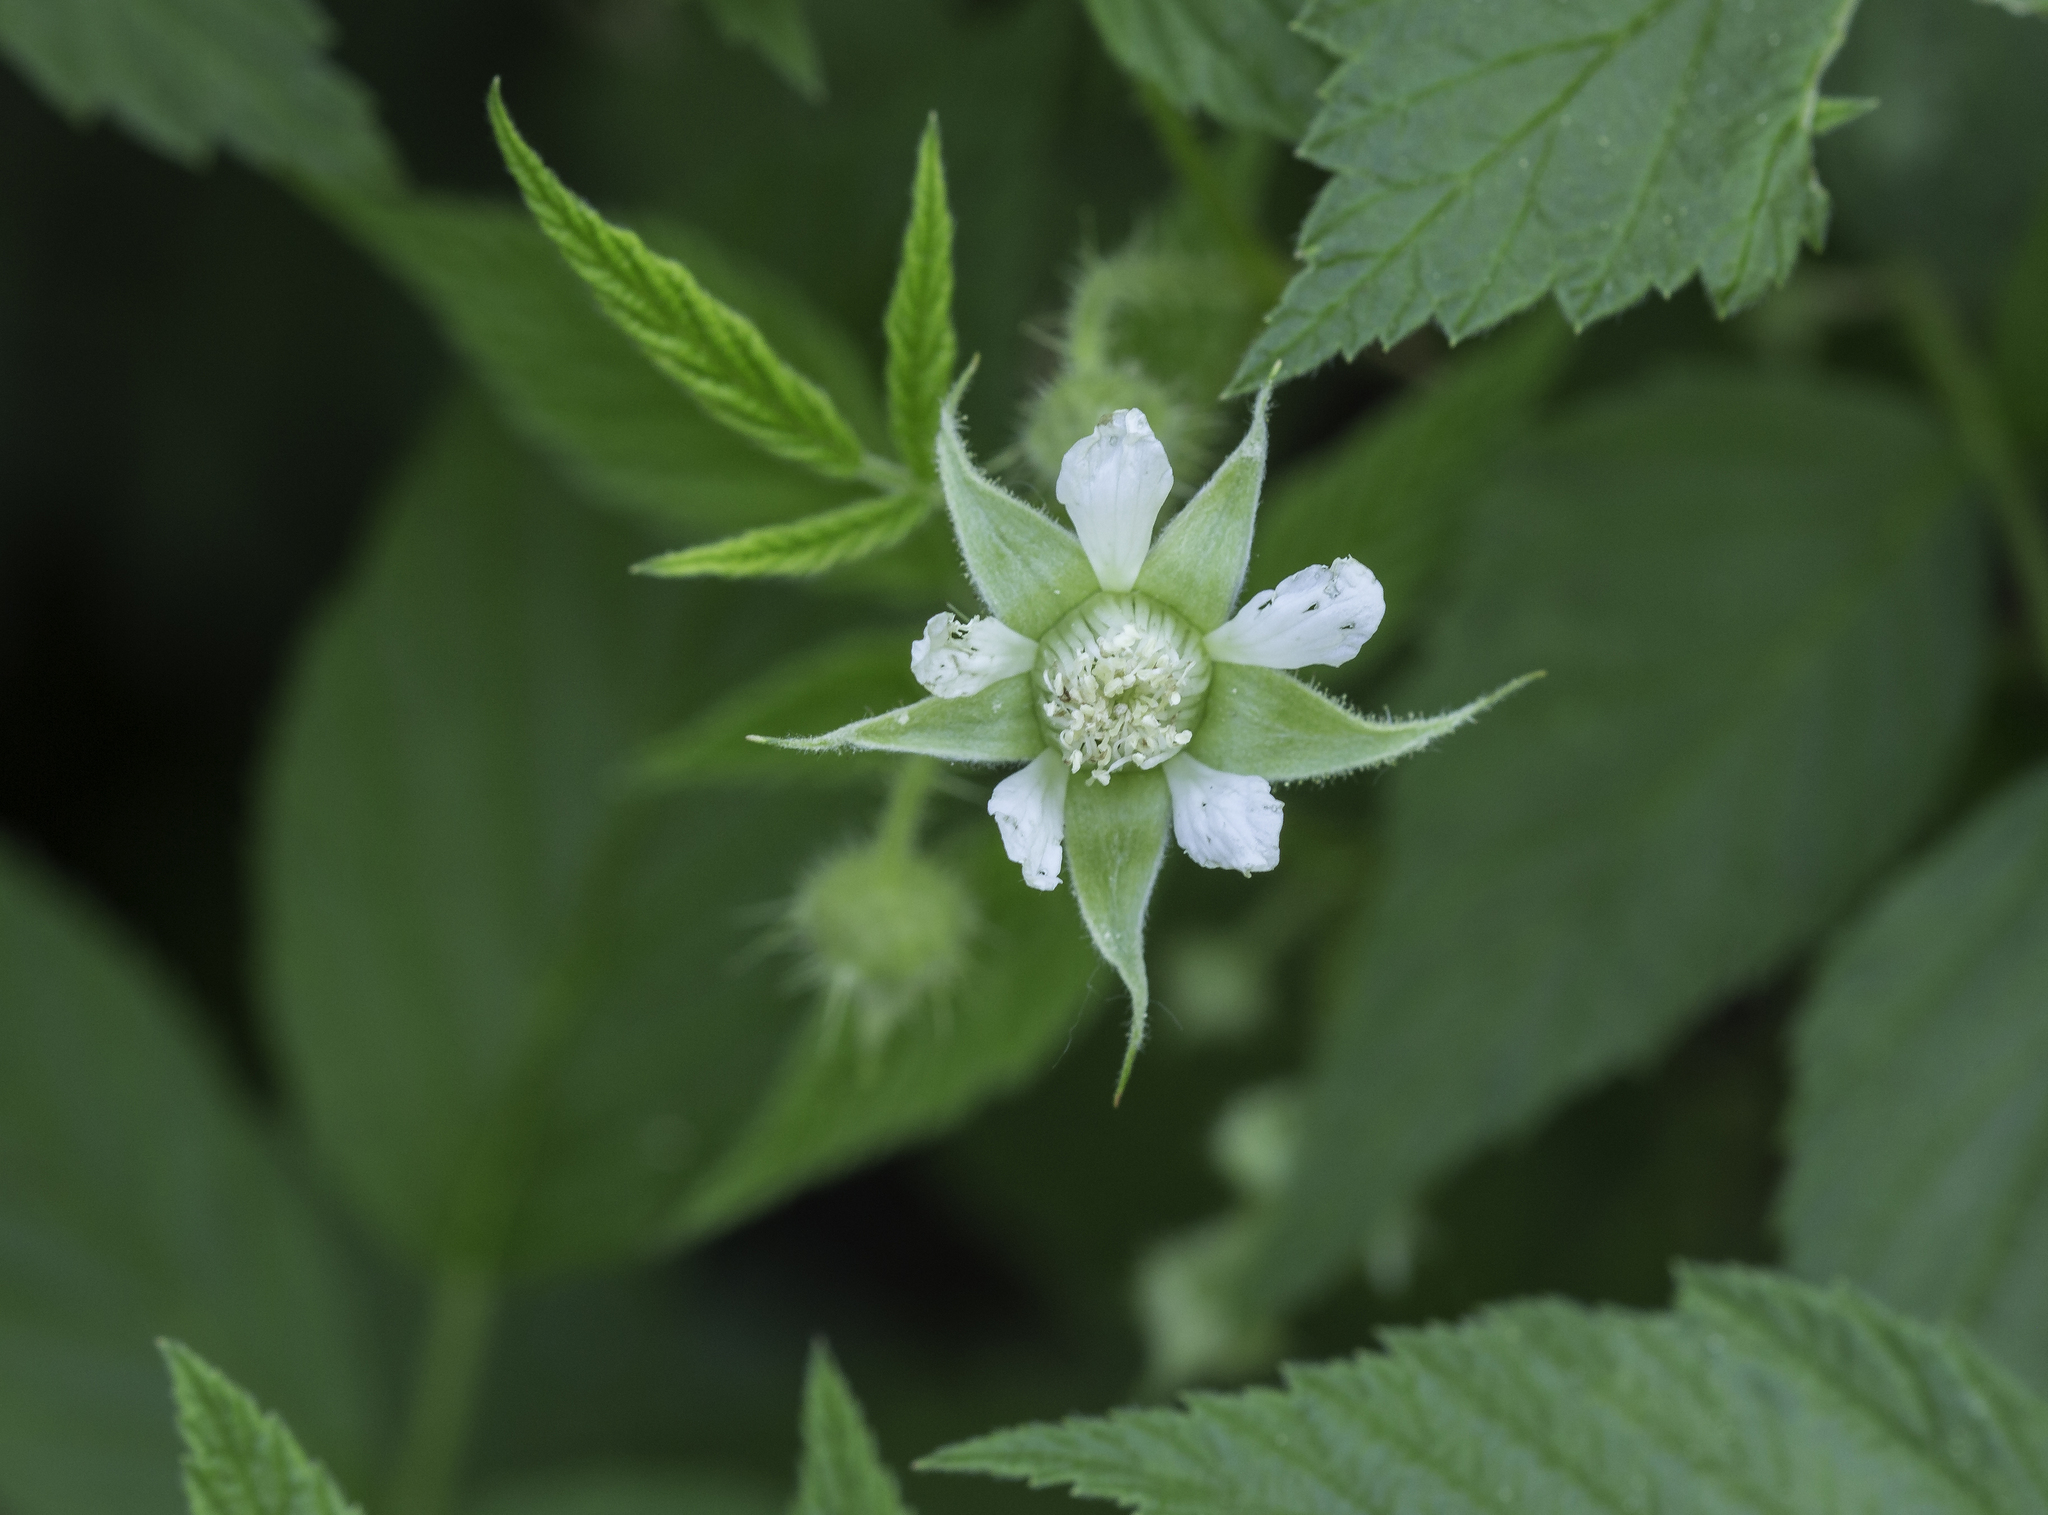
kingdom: Plantae
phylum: Tracheophyta
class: Magnoliopsida
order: Rosales
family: Rosaceae
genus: Rubus
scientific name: Rubus idaeus
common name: Raspberry
